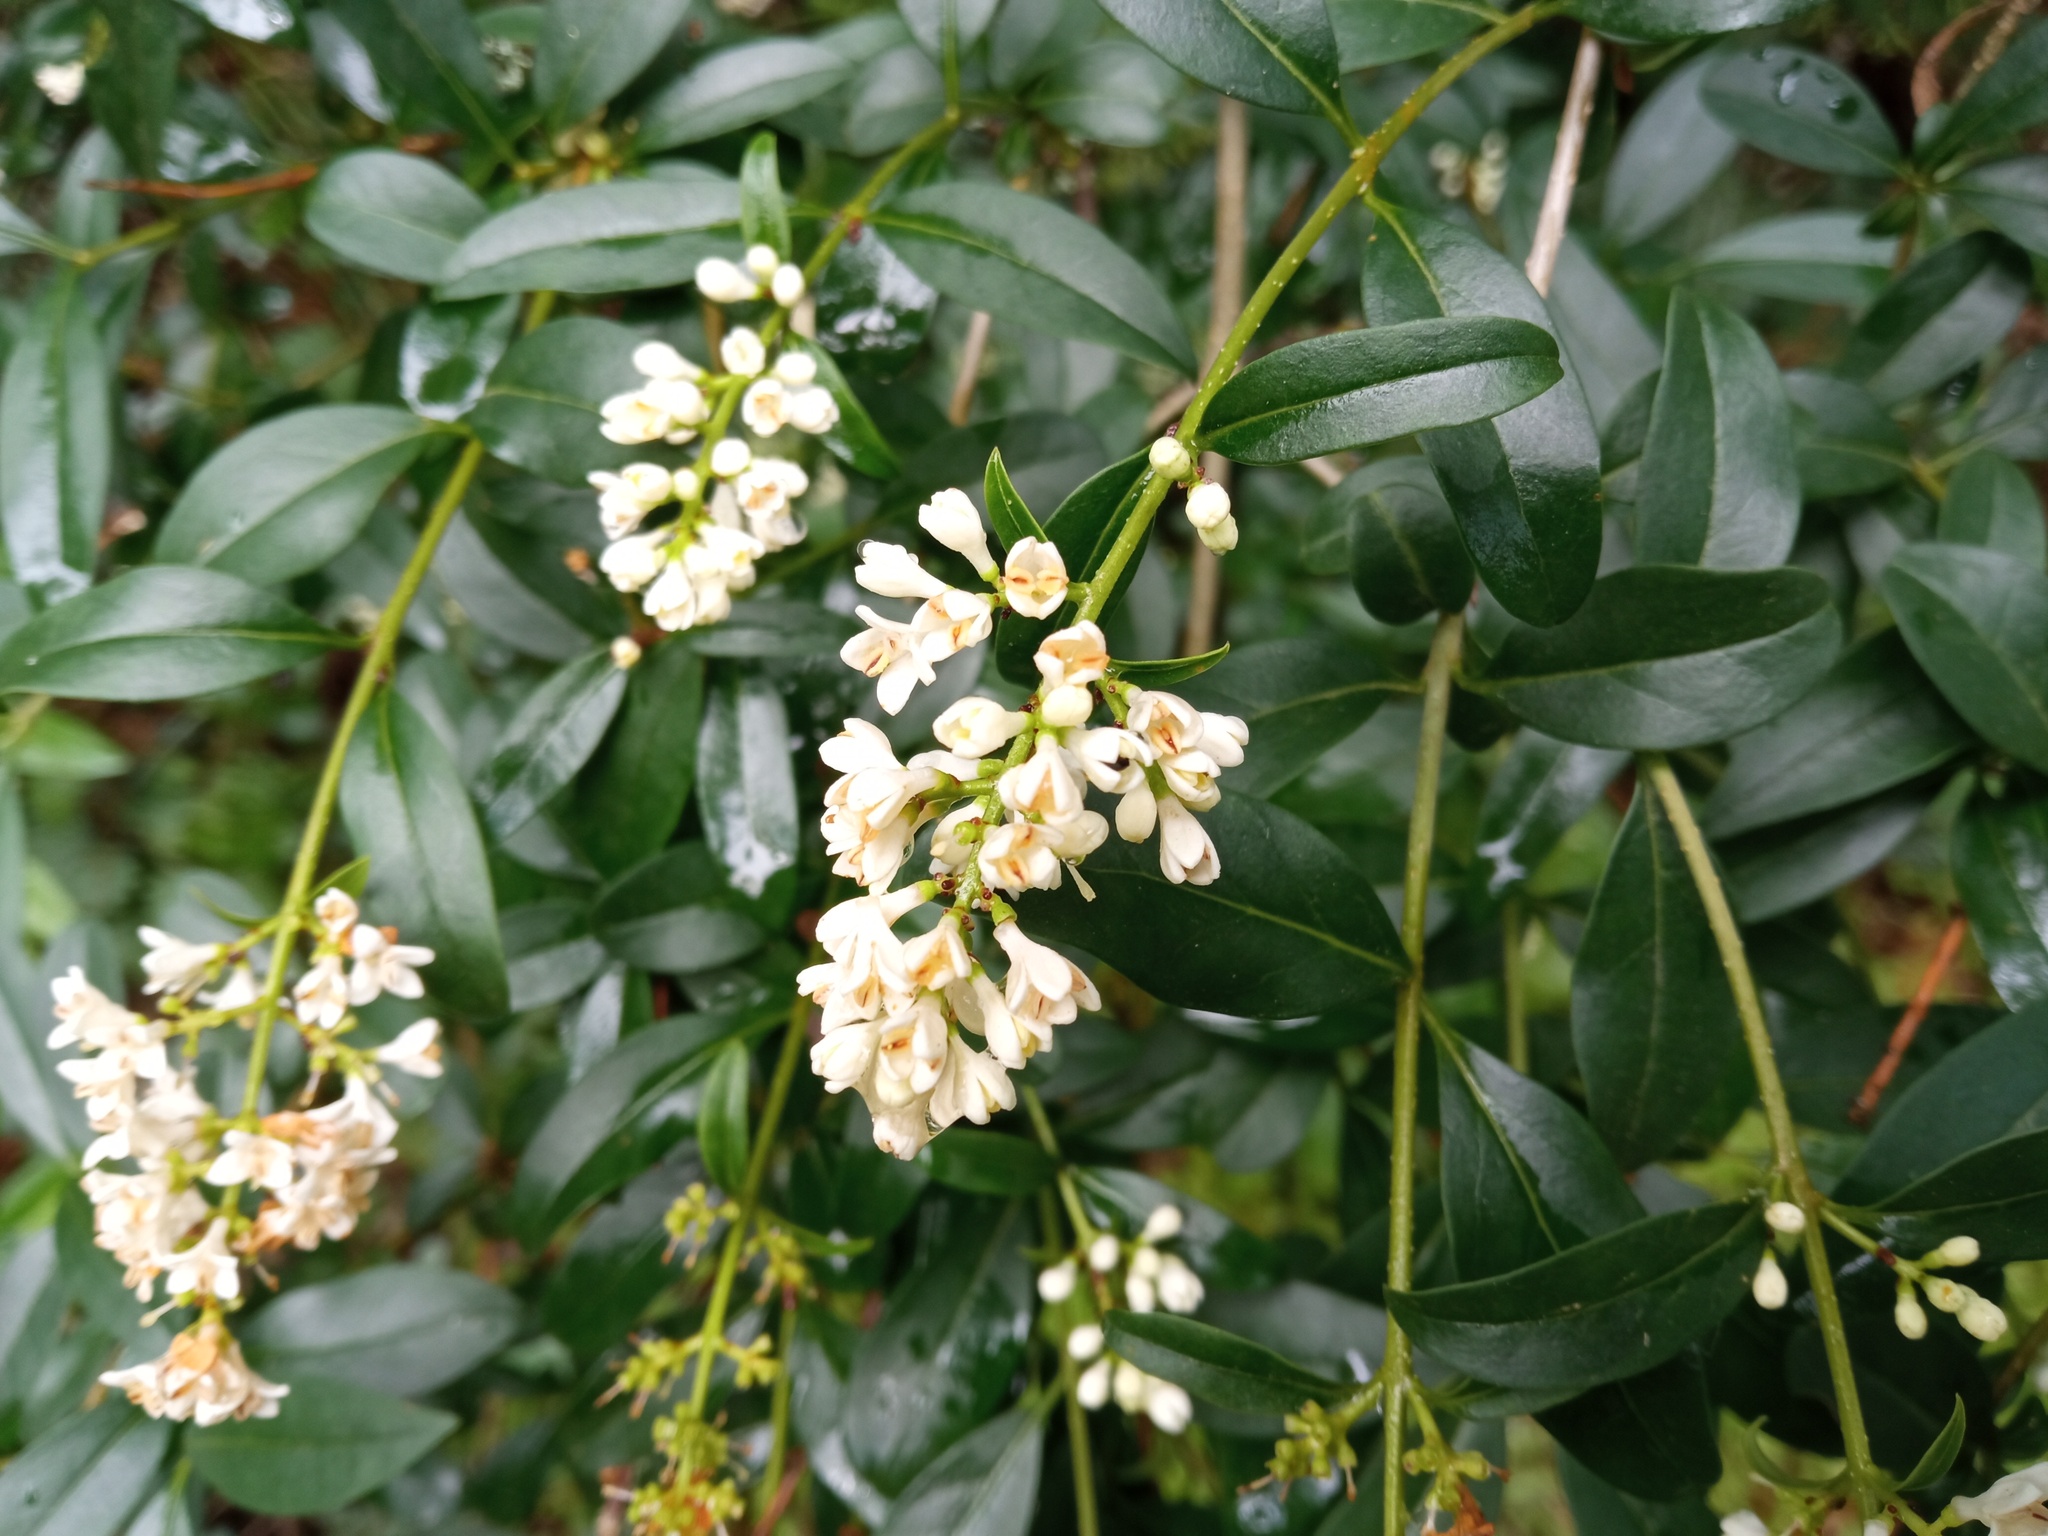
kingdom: Plantae
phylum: Tracheophyta
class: Magnoliopsida
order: Lamiales
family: Oleaceae
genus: Ligustrum
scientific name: Ligustrum vulgare
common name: Wild privet
